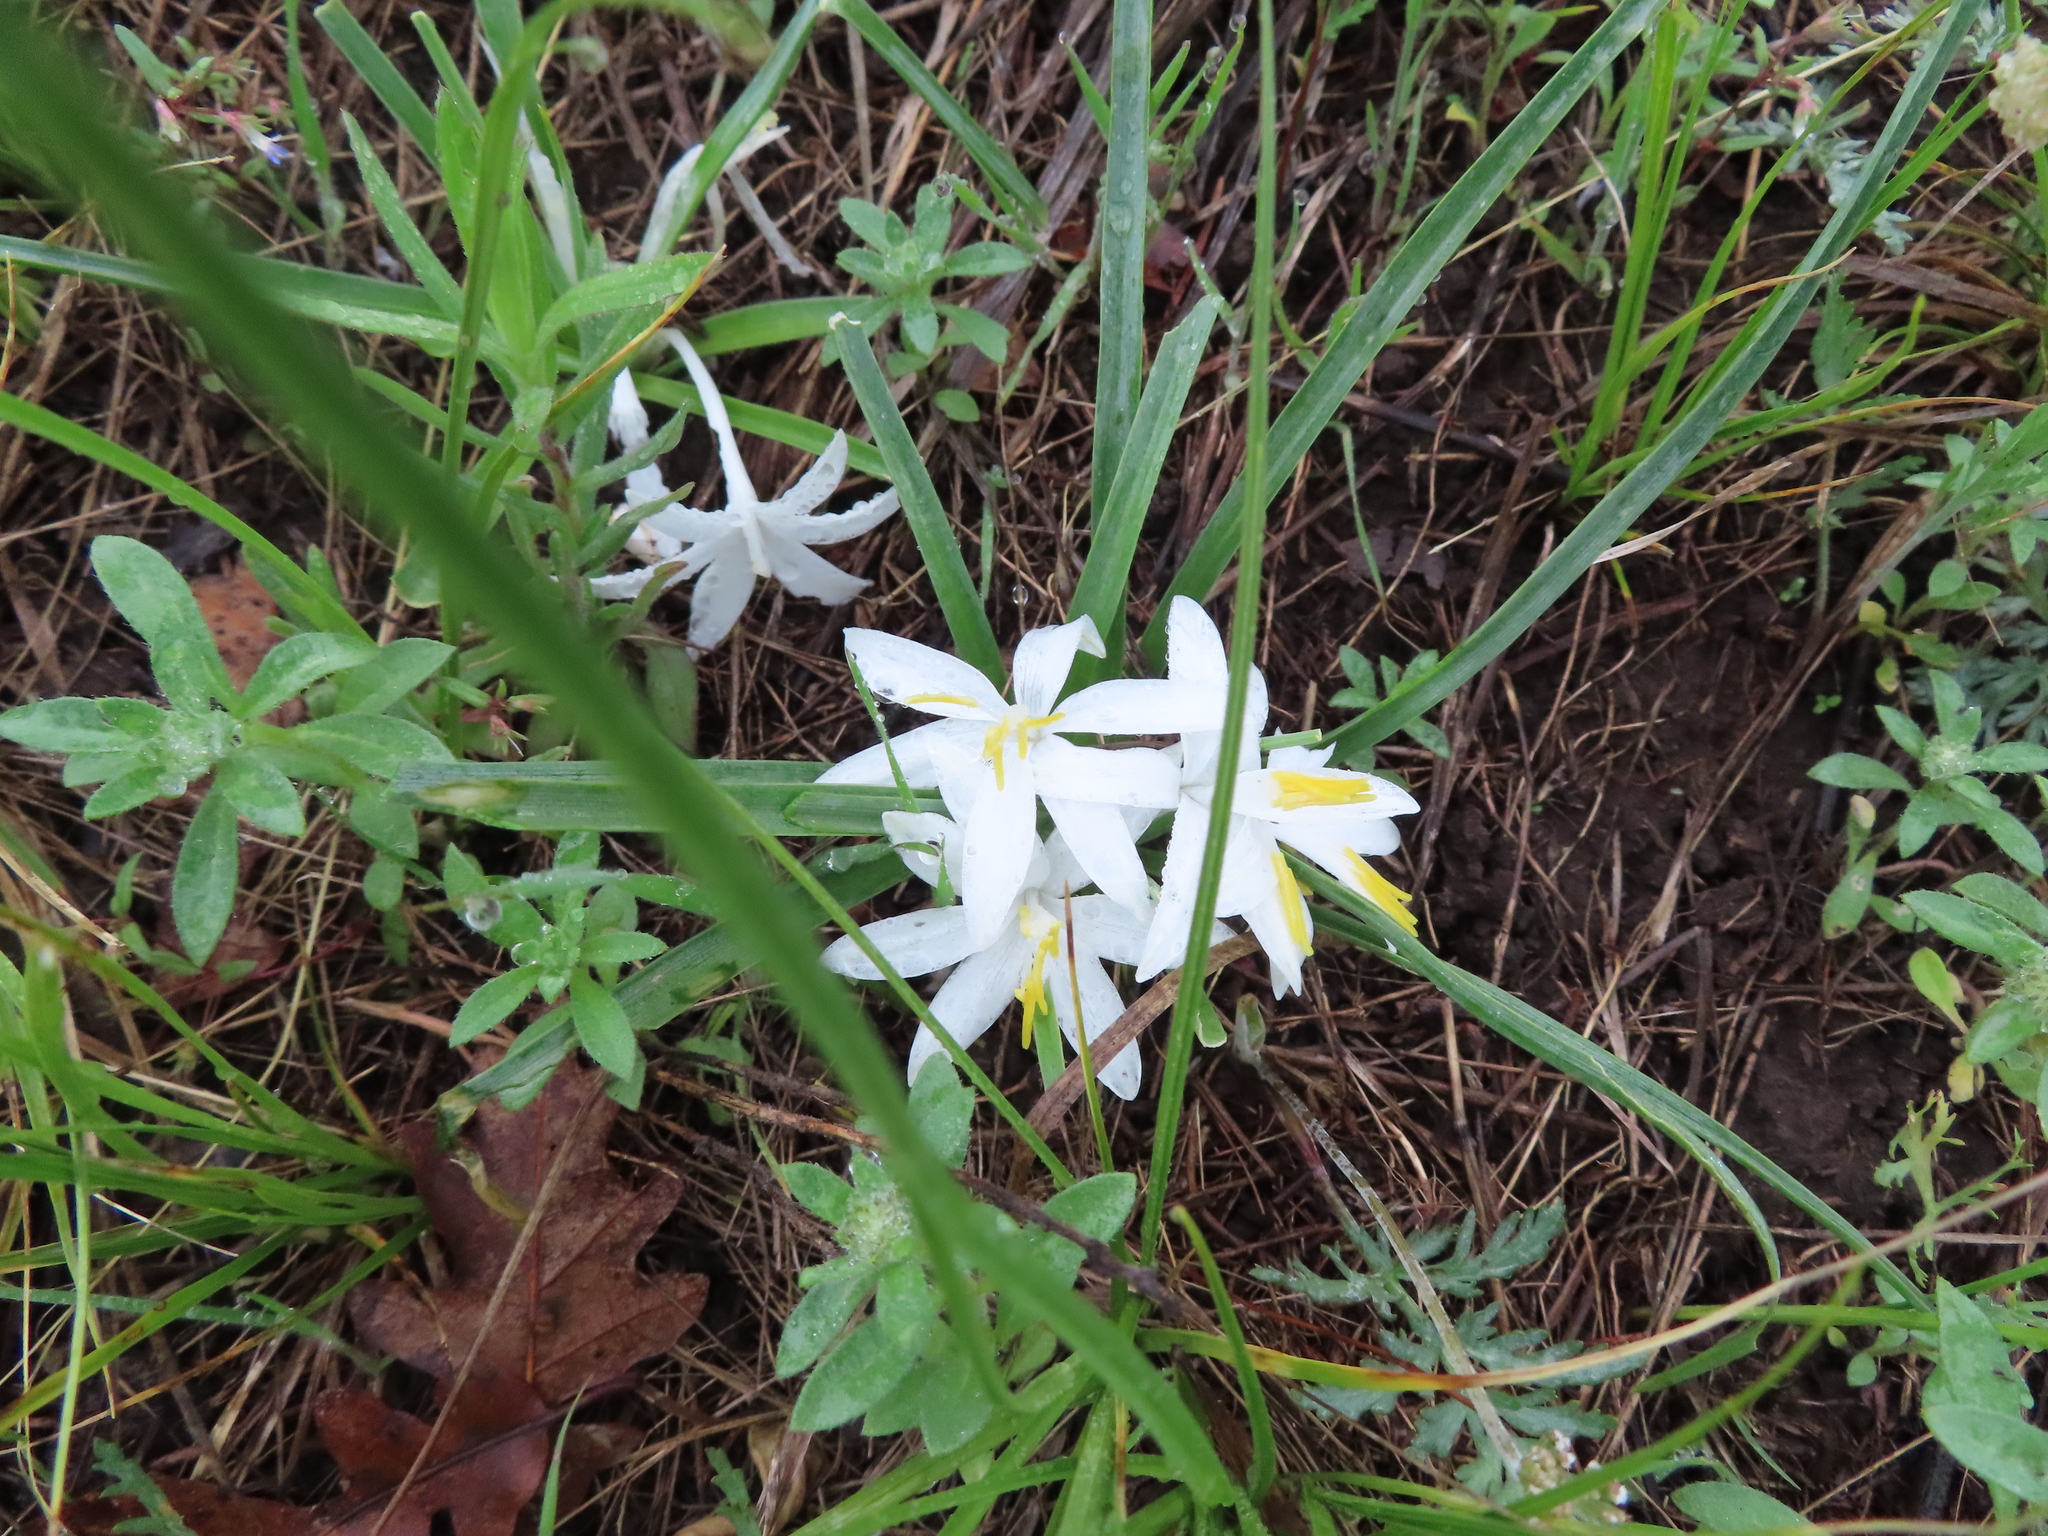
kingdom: Plantae
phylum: Tracheophyta
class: Liliopsida
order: Asparagales
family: Asparagaceae
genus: Leucocrinum
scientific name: Leucocrinum montanum
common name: Mountain-lily
